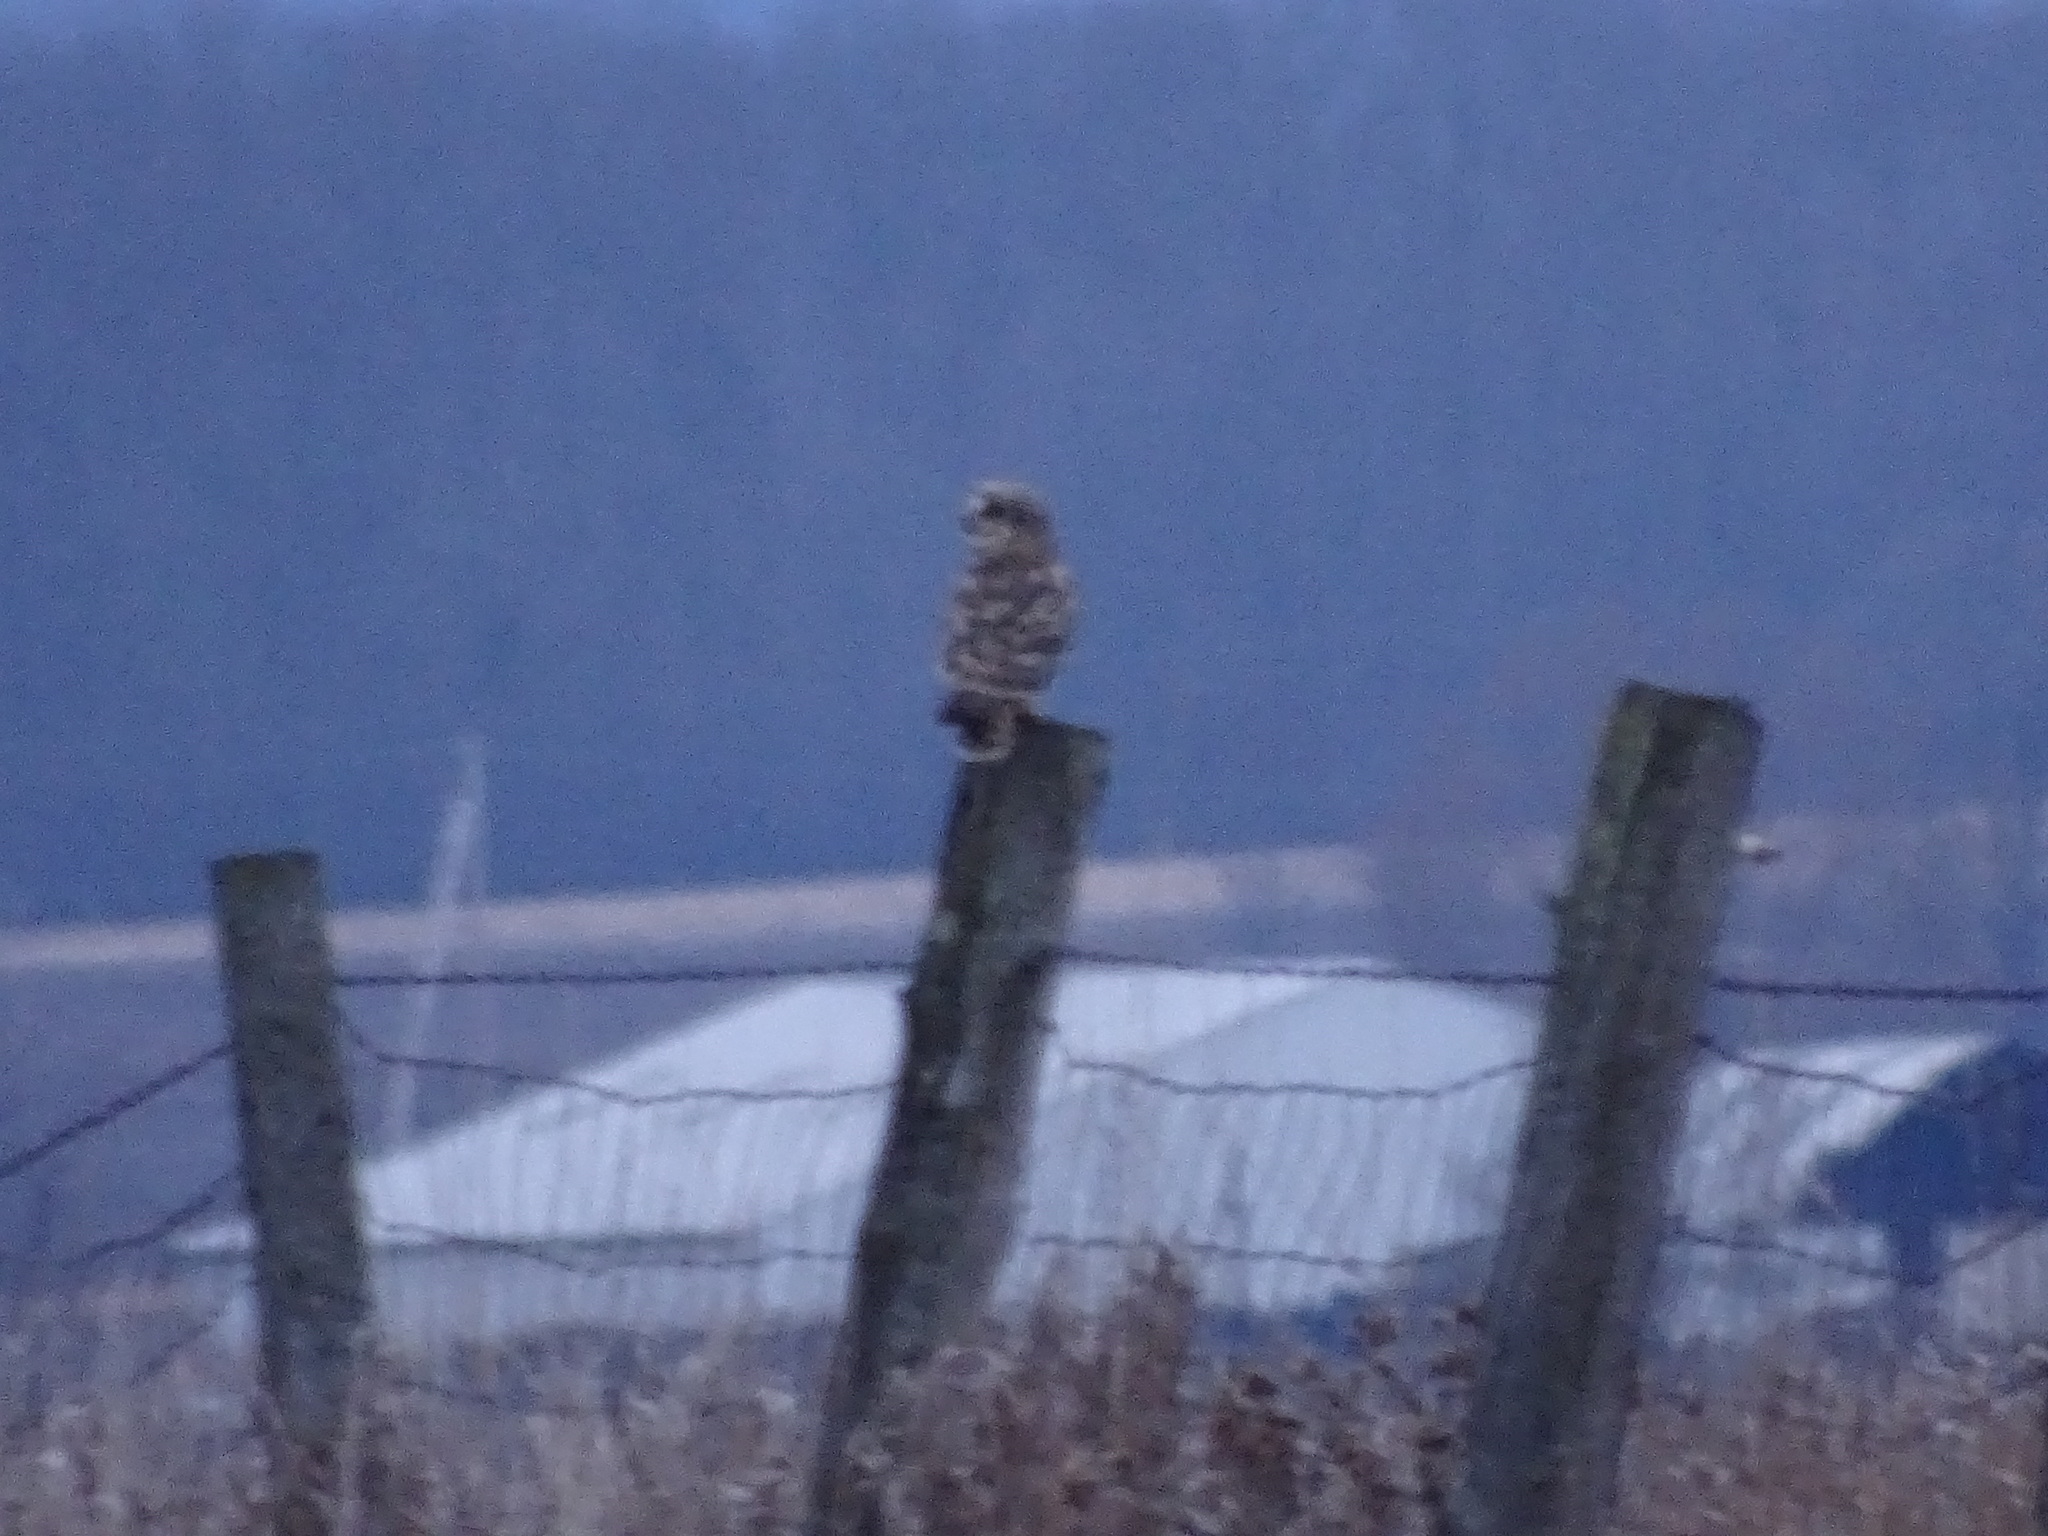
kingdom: Animalia
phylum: Chordata
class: Aves
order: Strigiformes
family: Strigidae
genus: Asio
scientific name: Asio flammeus
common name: Short-eared owl
